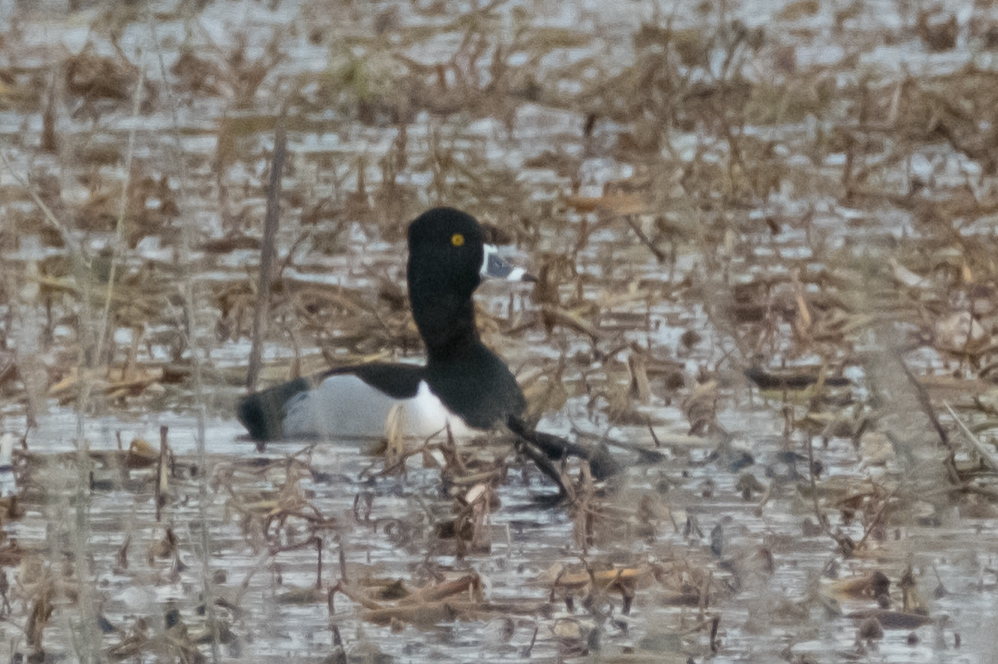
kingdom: Animalia
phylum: Chordata
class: Aves
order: Anseriformes
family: Anatidae
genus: Aythya
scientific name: Aythya collaris
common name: Ring-necked duck
